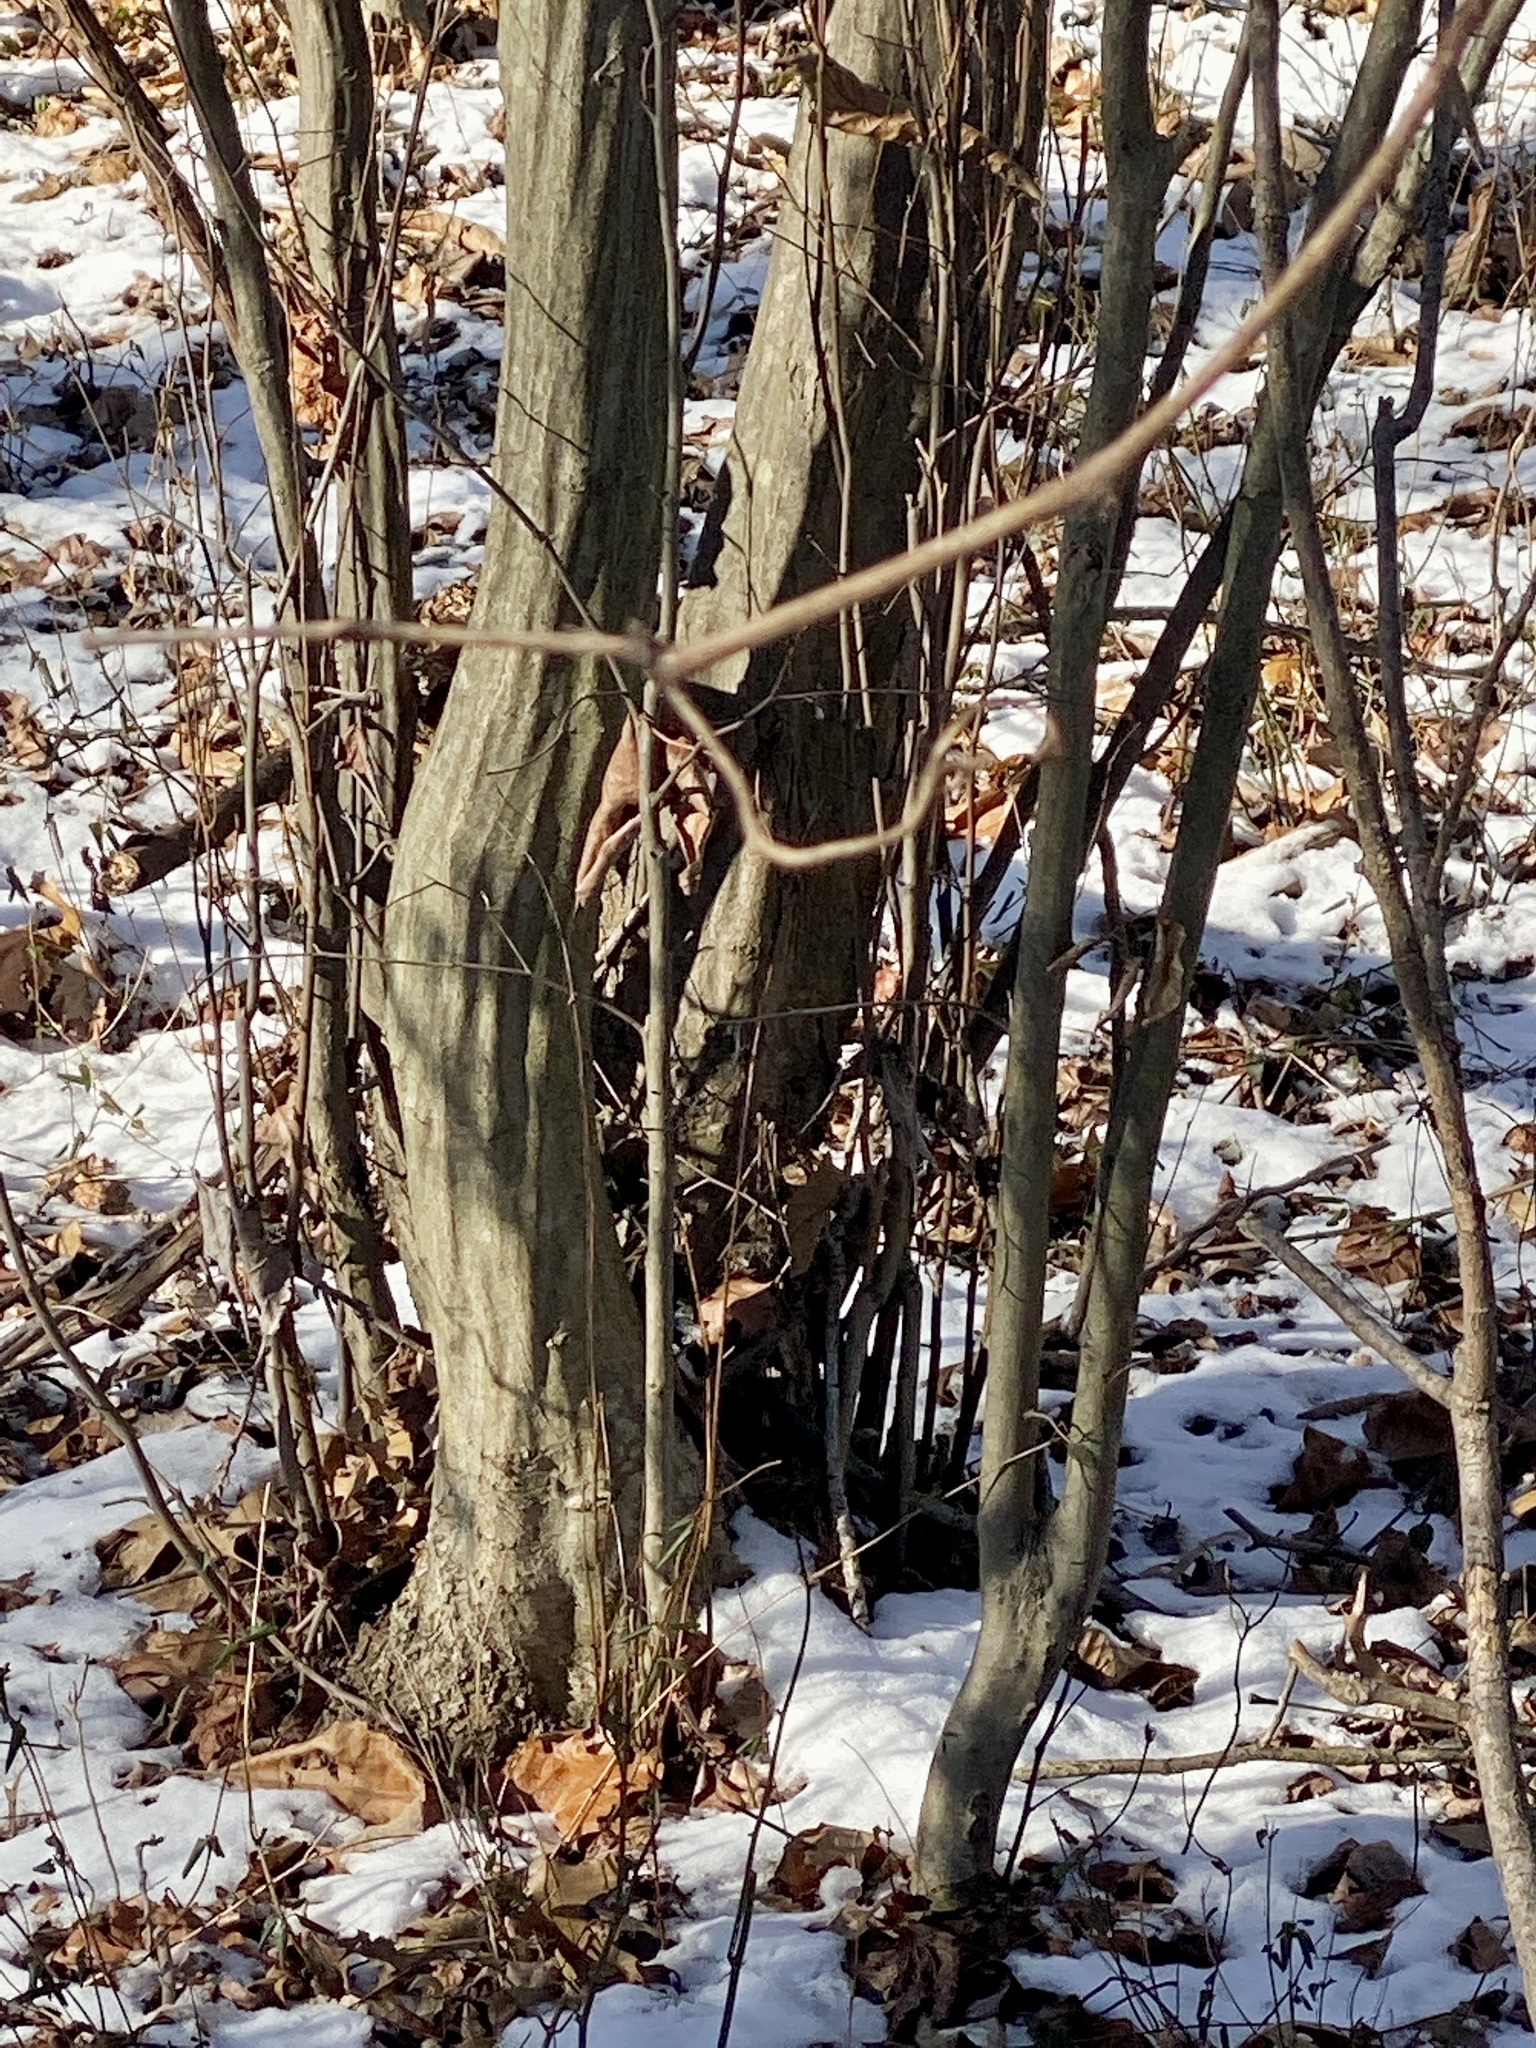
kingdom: Plantae
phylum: Tracheophyta
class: Magnoliopsida
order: Fagales
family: Betulaceae
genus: Carpinus
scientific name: Carpinus caroliniana
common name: American hornbeam
